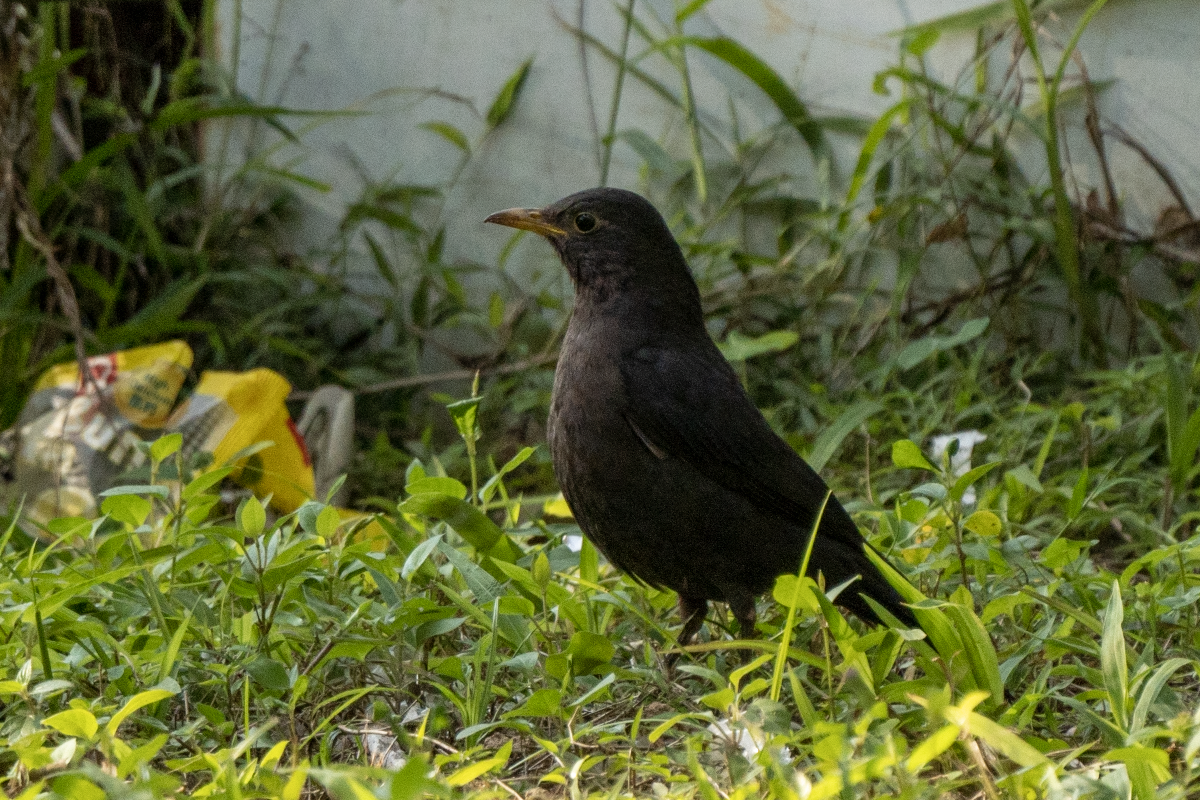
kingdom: Animalia
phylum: Chordata
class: Aves
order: Passeriformes
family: Turdidae
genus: Turdus
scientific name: Turdus mandarinus
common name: Chinese blackbird
